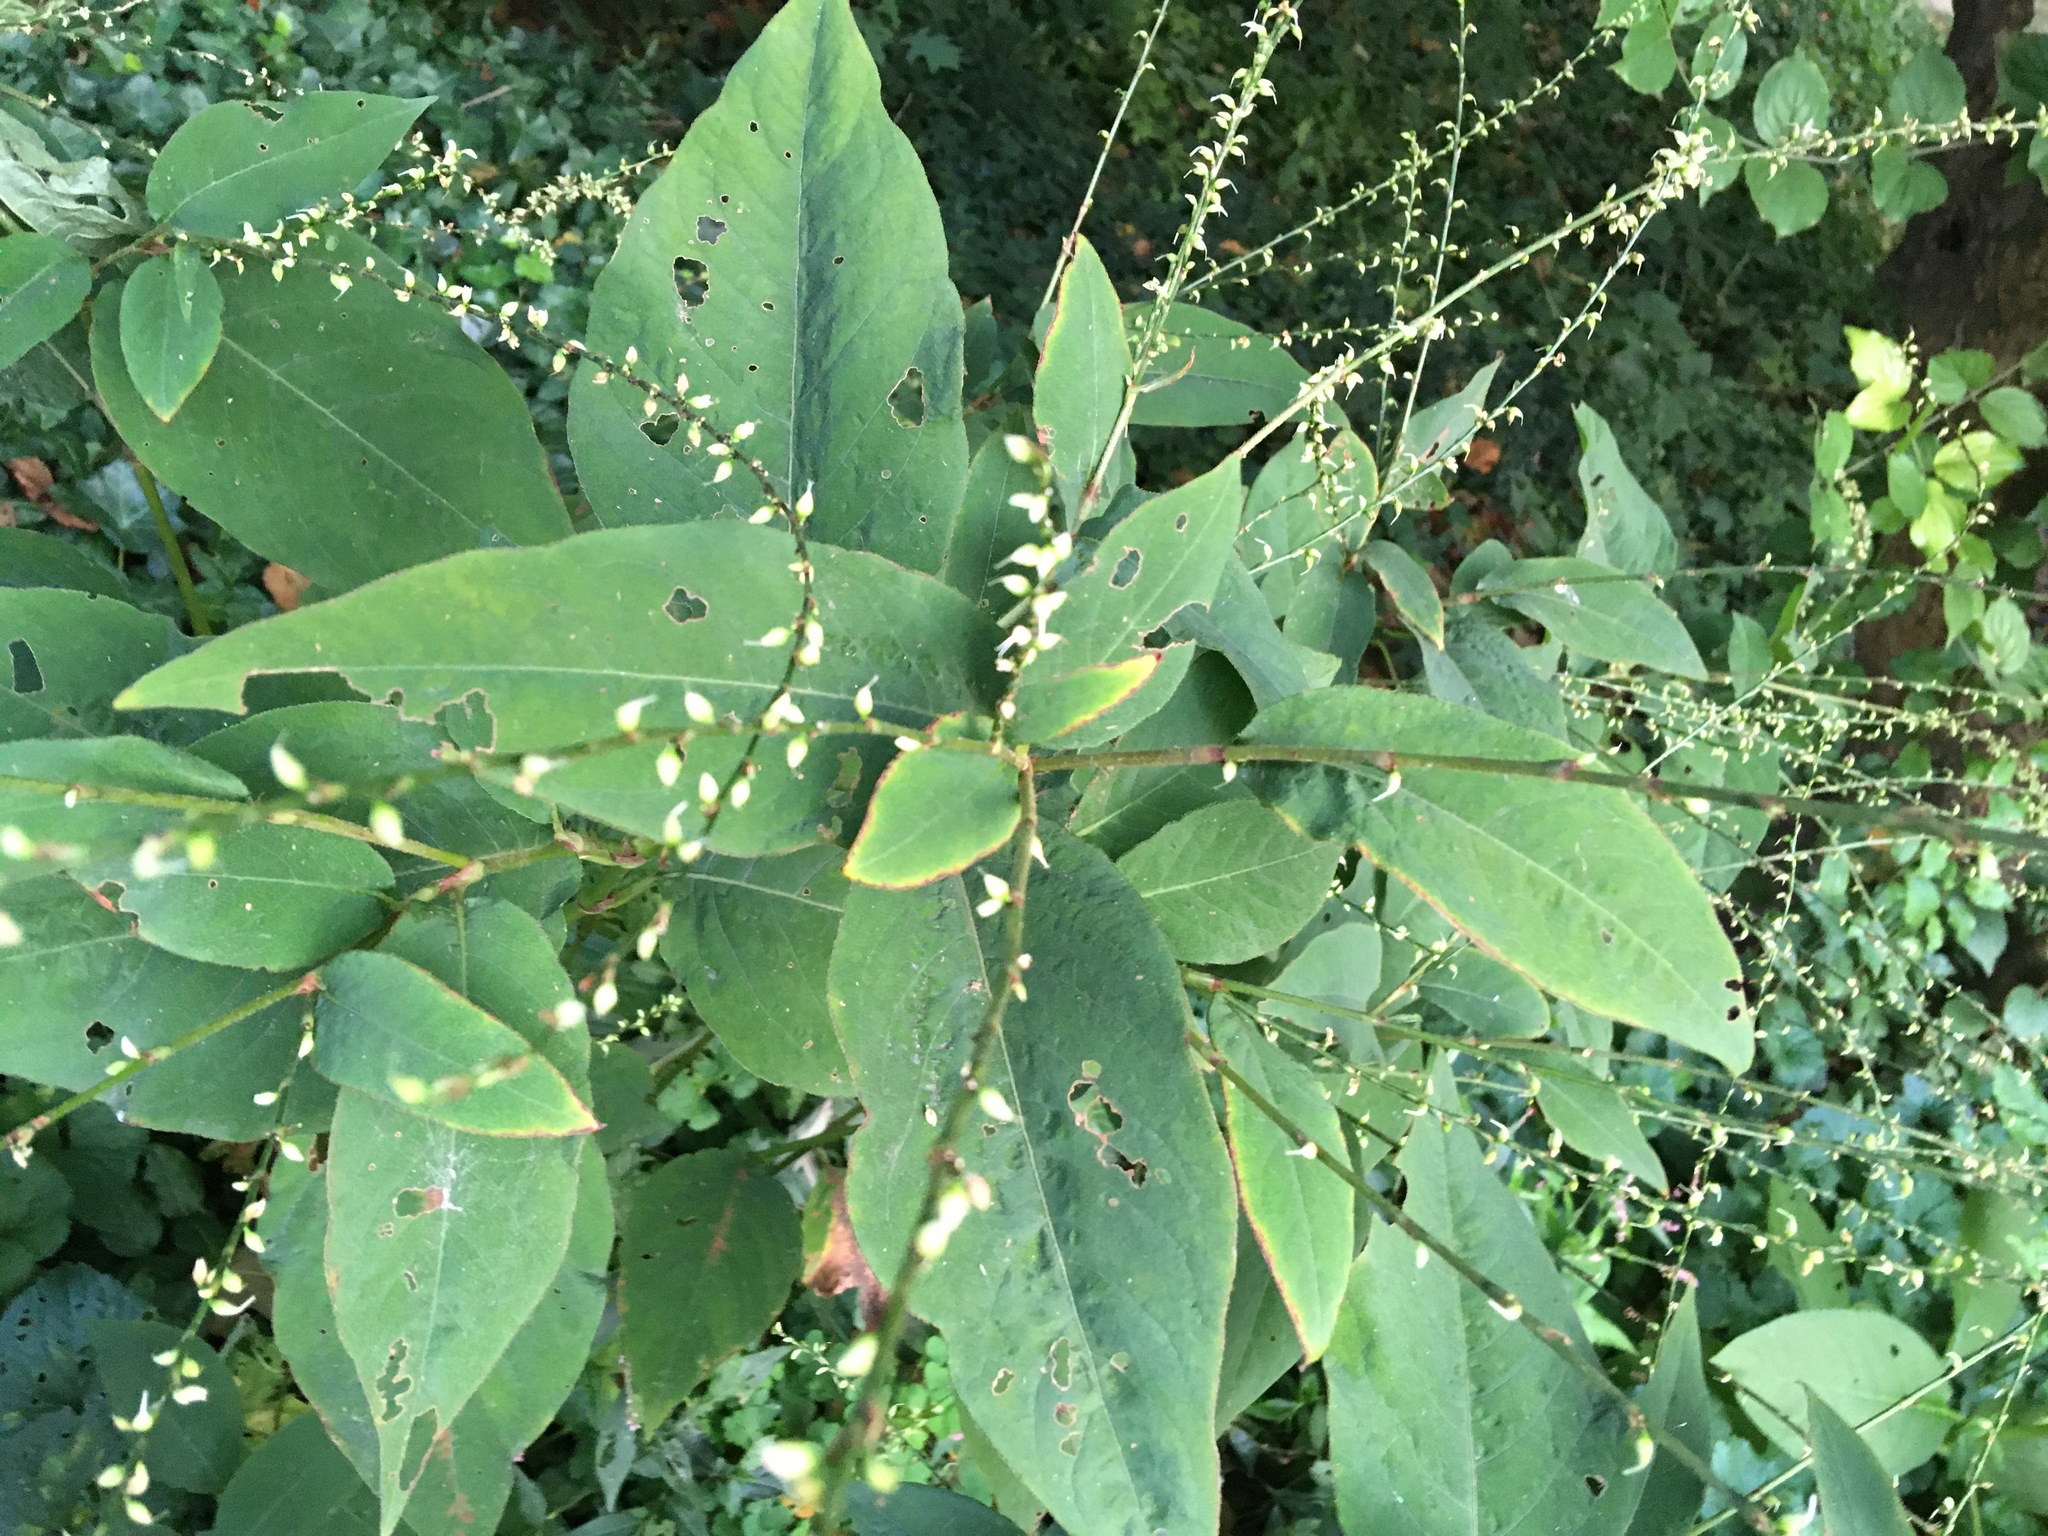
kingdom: Plantae
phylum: Tracheophyta
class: Magnoliopsida
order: Caryophyllales
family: Polygonaceae
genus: Persicaria
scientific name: Persicaria virginiana
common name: Jumpseed
